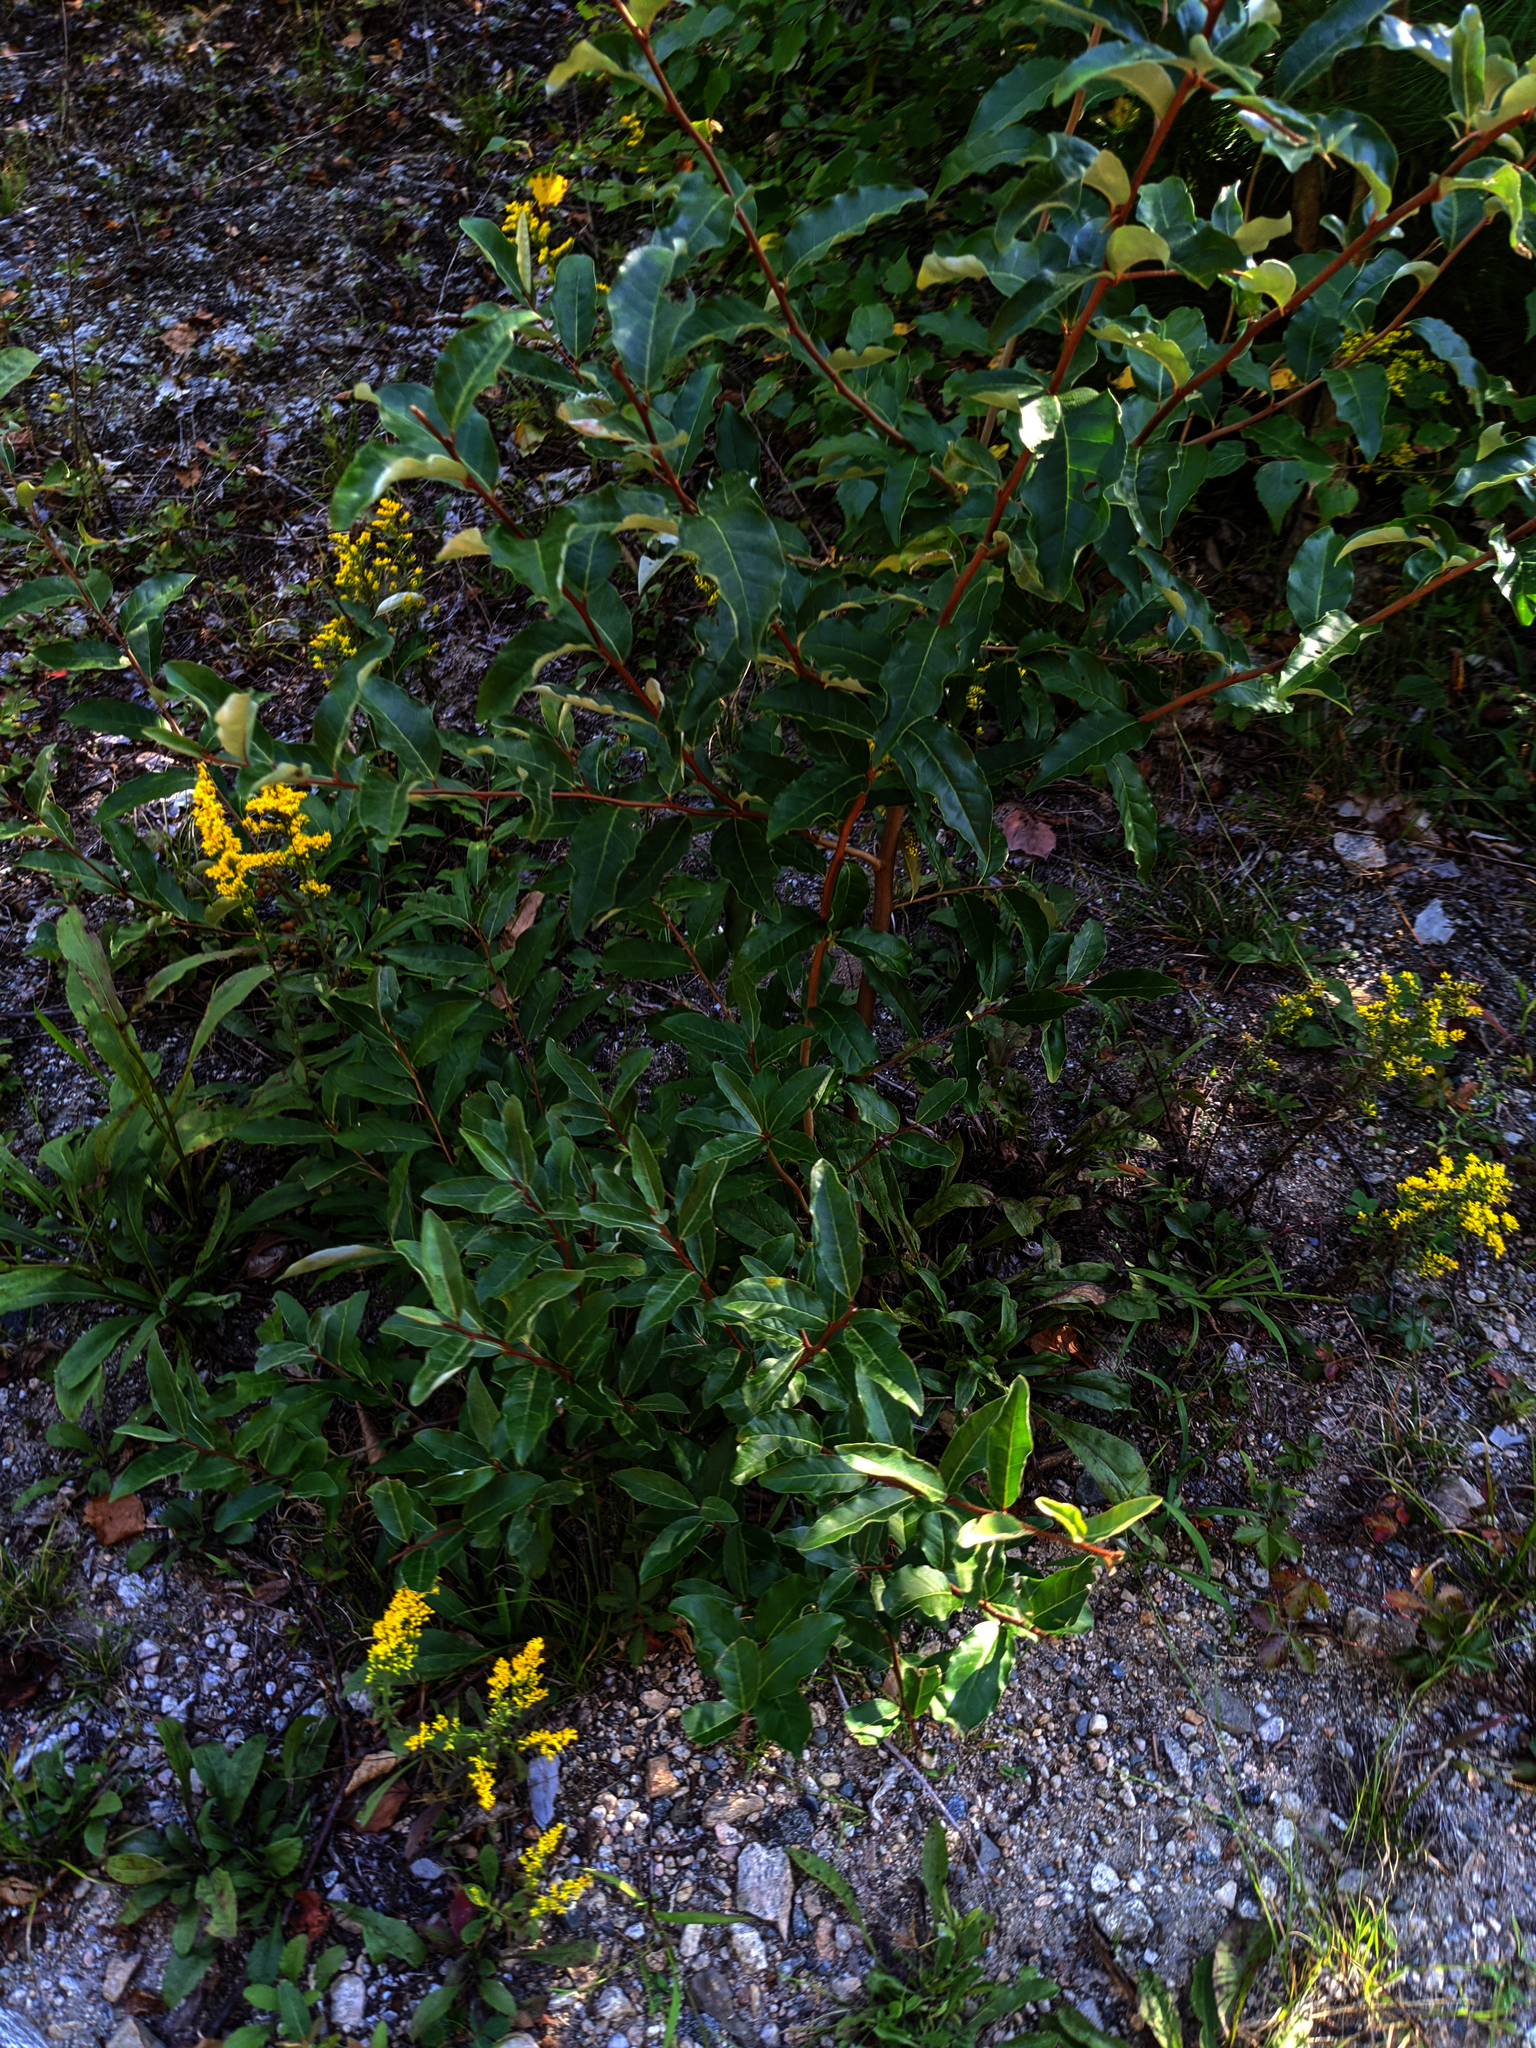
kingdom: Plantae
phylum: Tracheophyta
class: Magnoliopsida
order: Rosales
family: Elaeagnaceae
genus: Elaeagnus
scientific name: Elaeagnus umbellata
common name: Autumn olive
